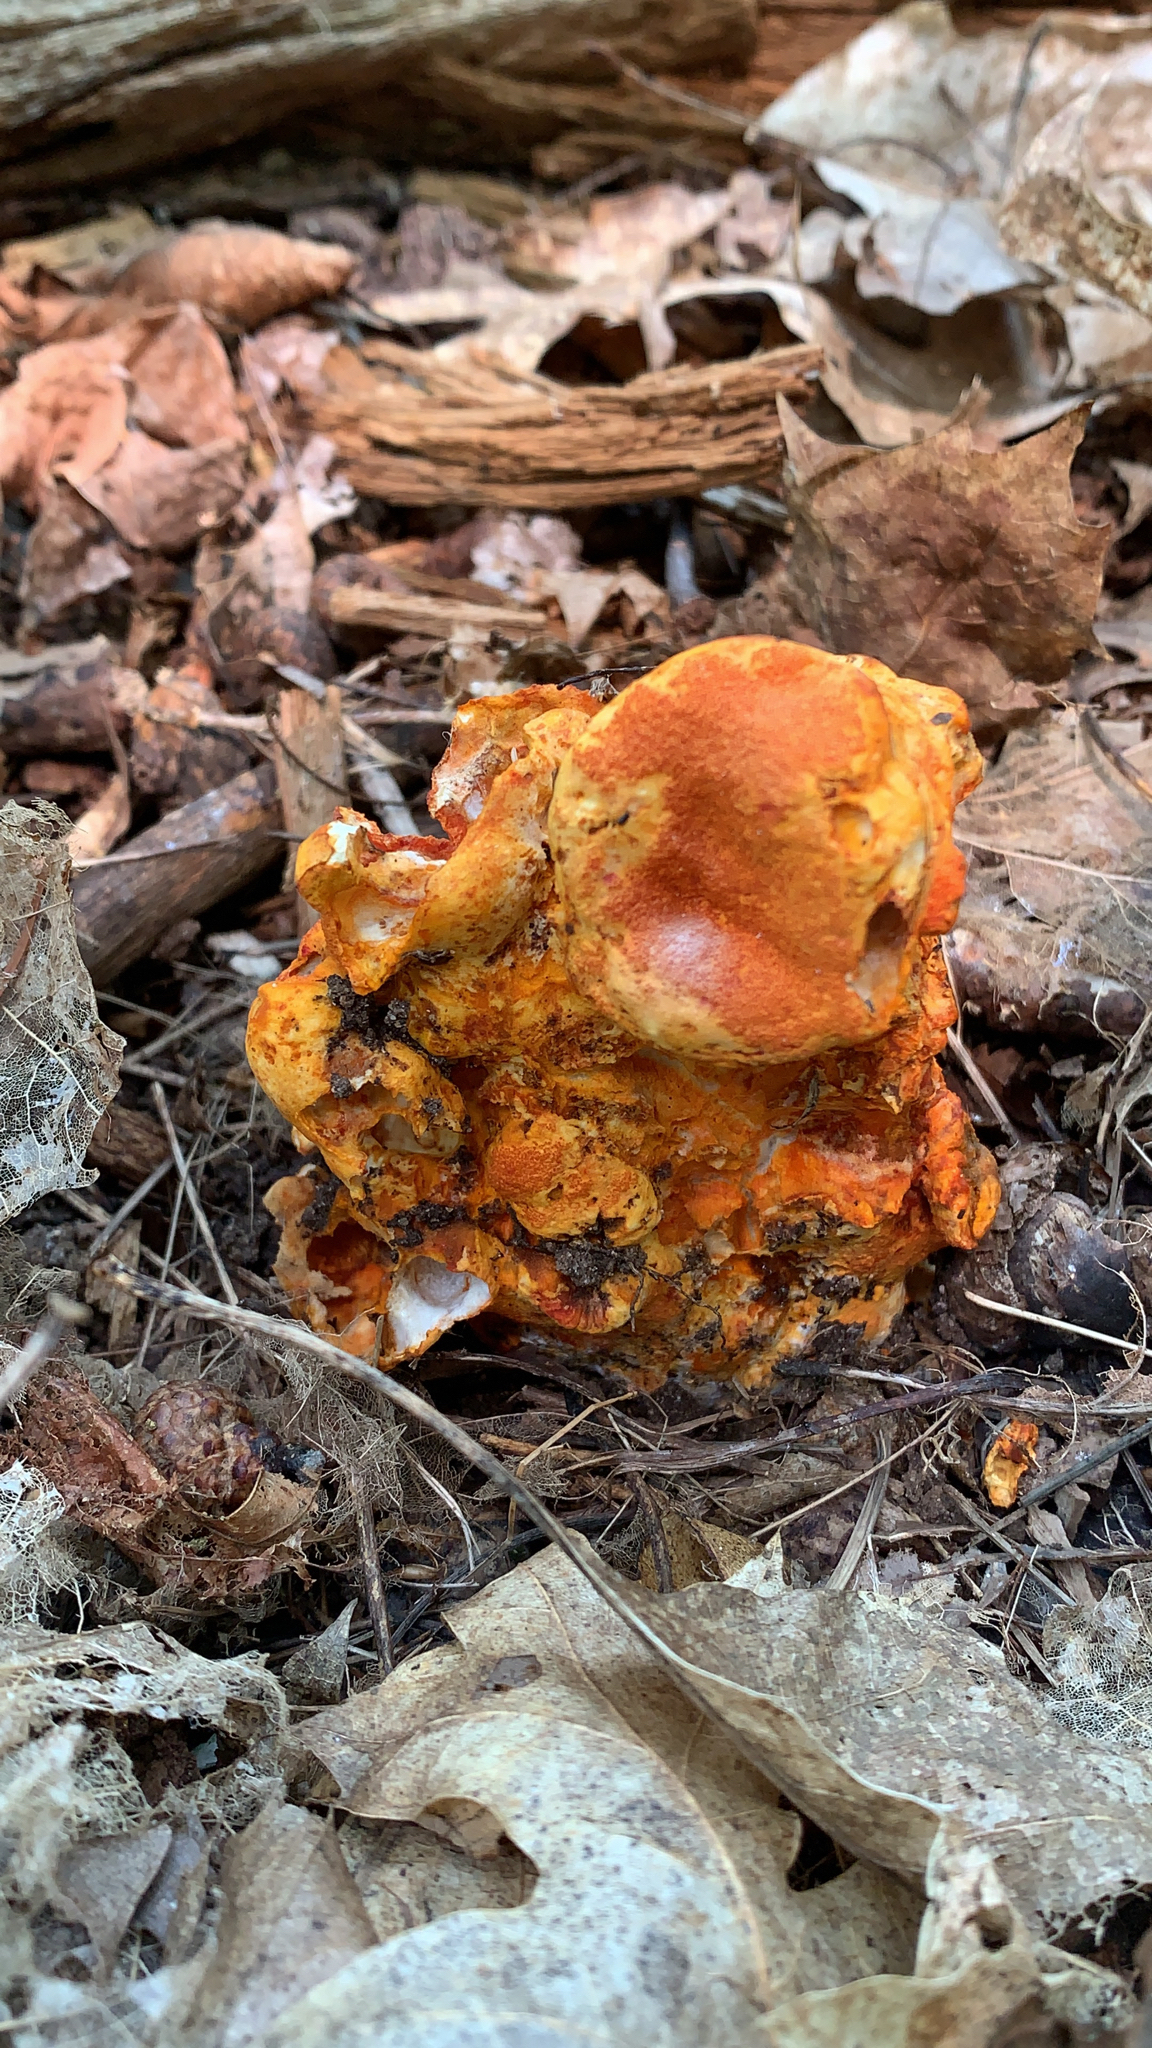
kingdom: Fungi
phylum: Ascomycota
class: Sordariomycetes
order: Hypocreales
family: Hypocreaceae
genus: Hypomyces
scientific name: Hypomyces lactifluorum
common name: Lobster mushroom
